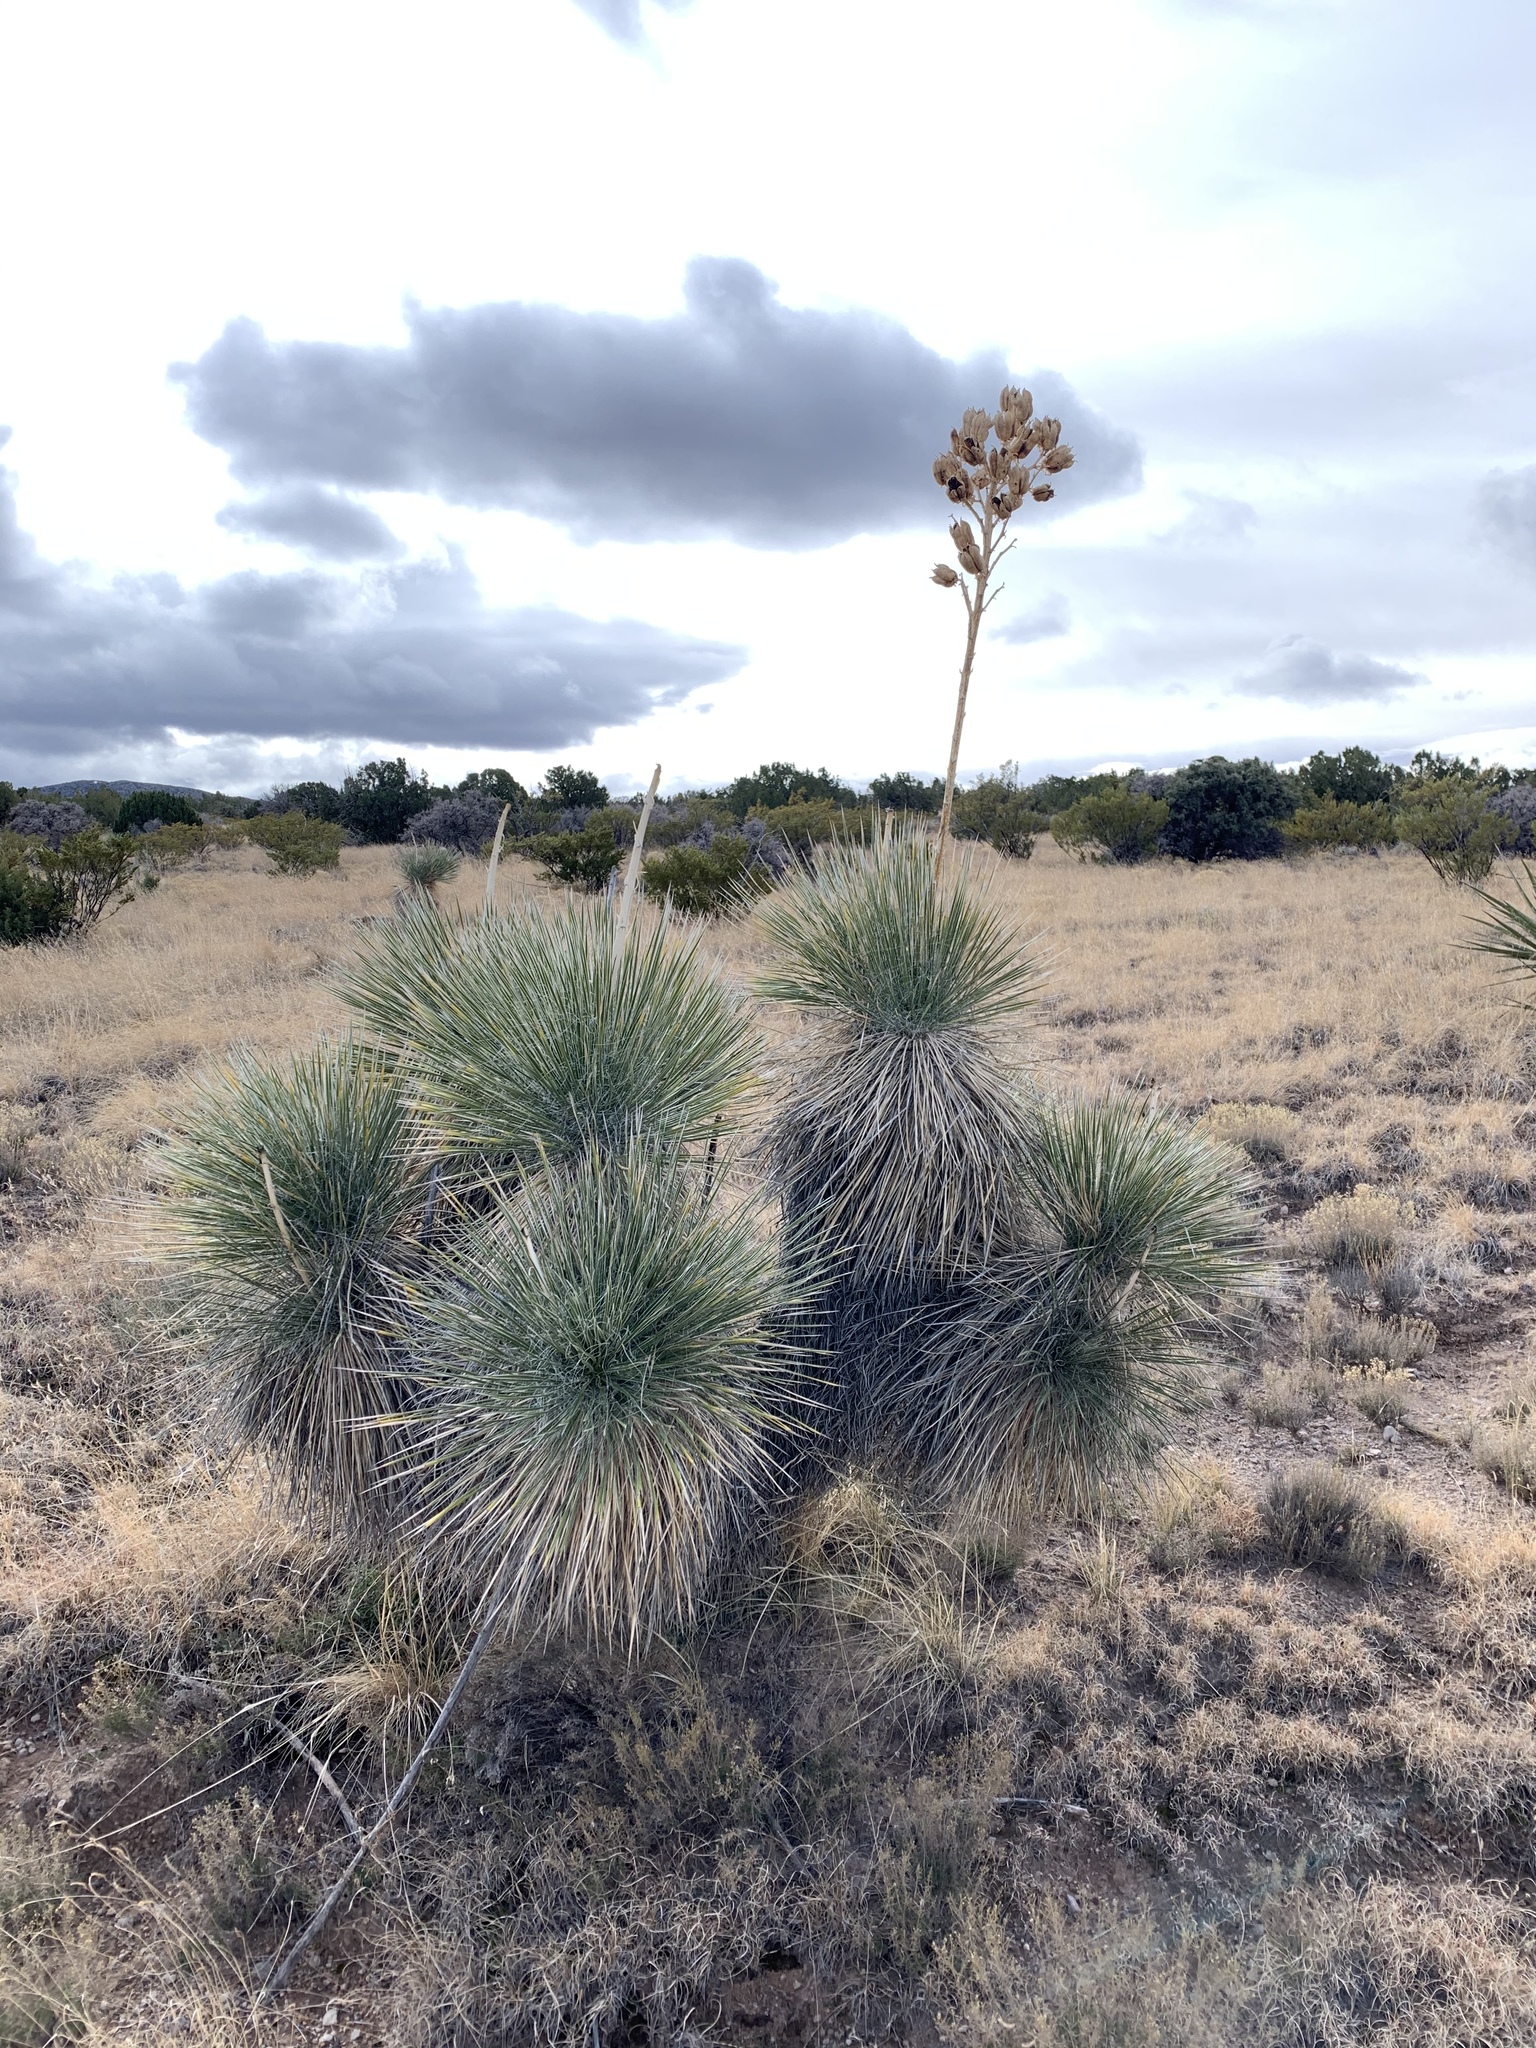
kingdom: Plantae
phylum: Tracheophyta
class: Liliopsida
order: Asparagales
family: Asparagaceae
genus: Yucca
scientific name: Yucca elata
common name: Palmella
